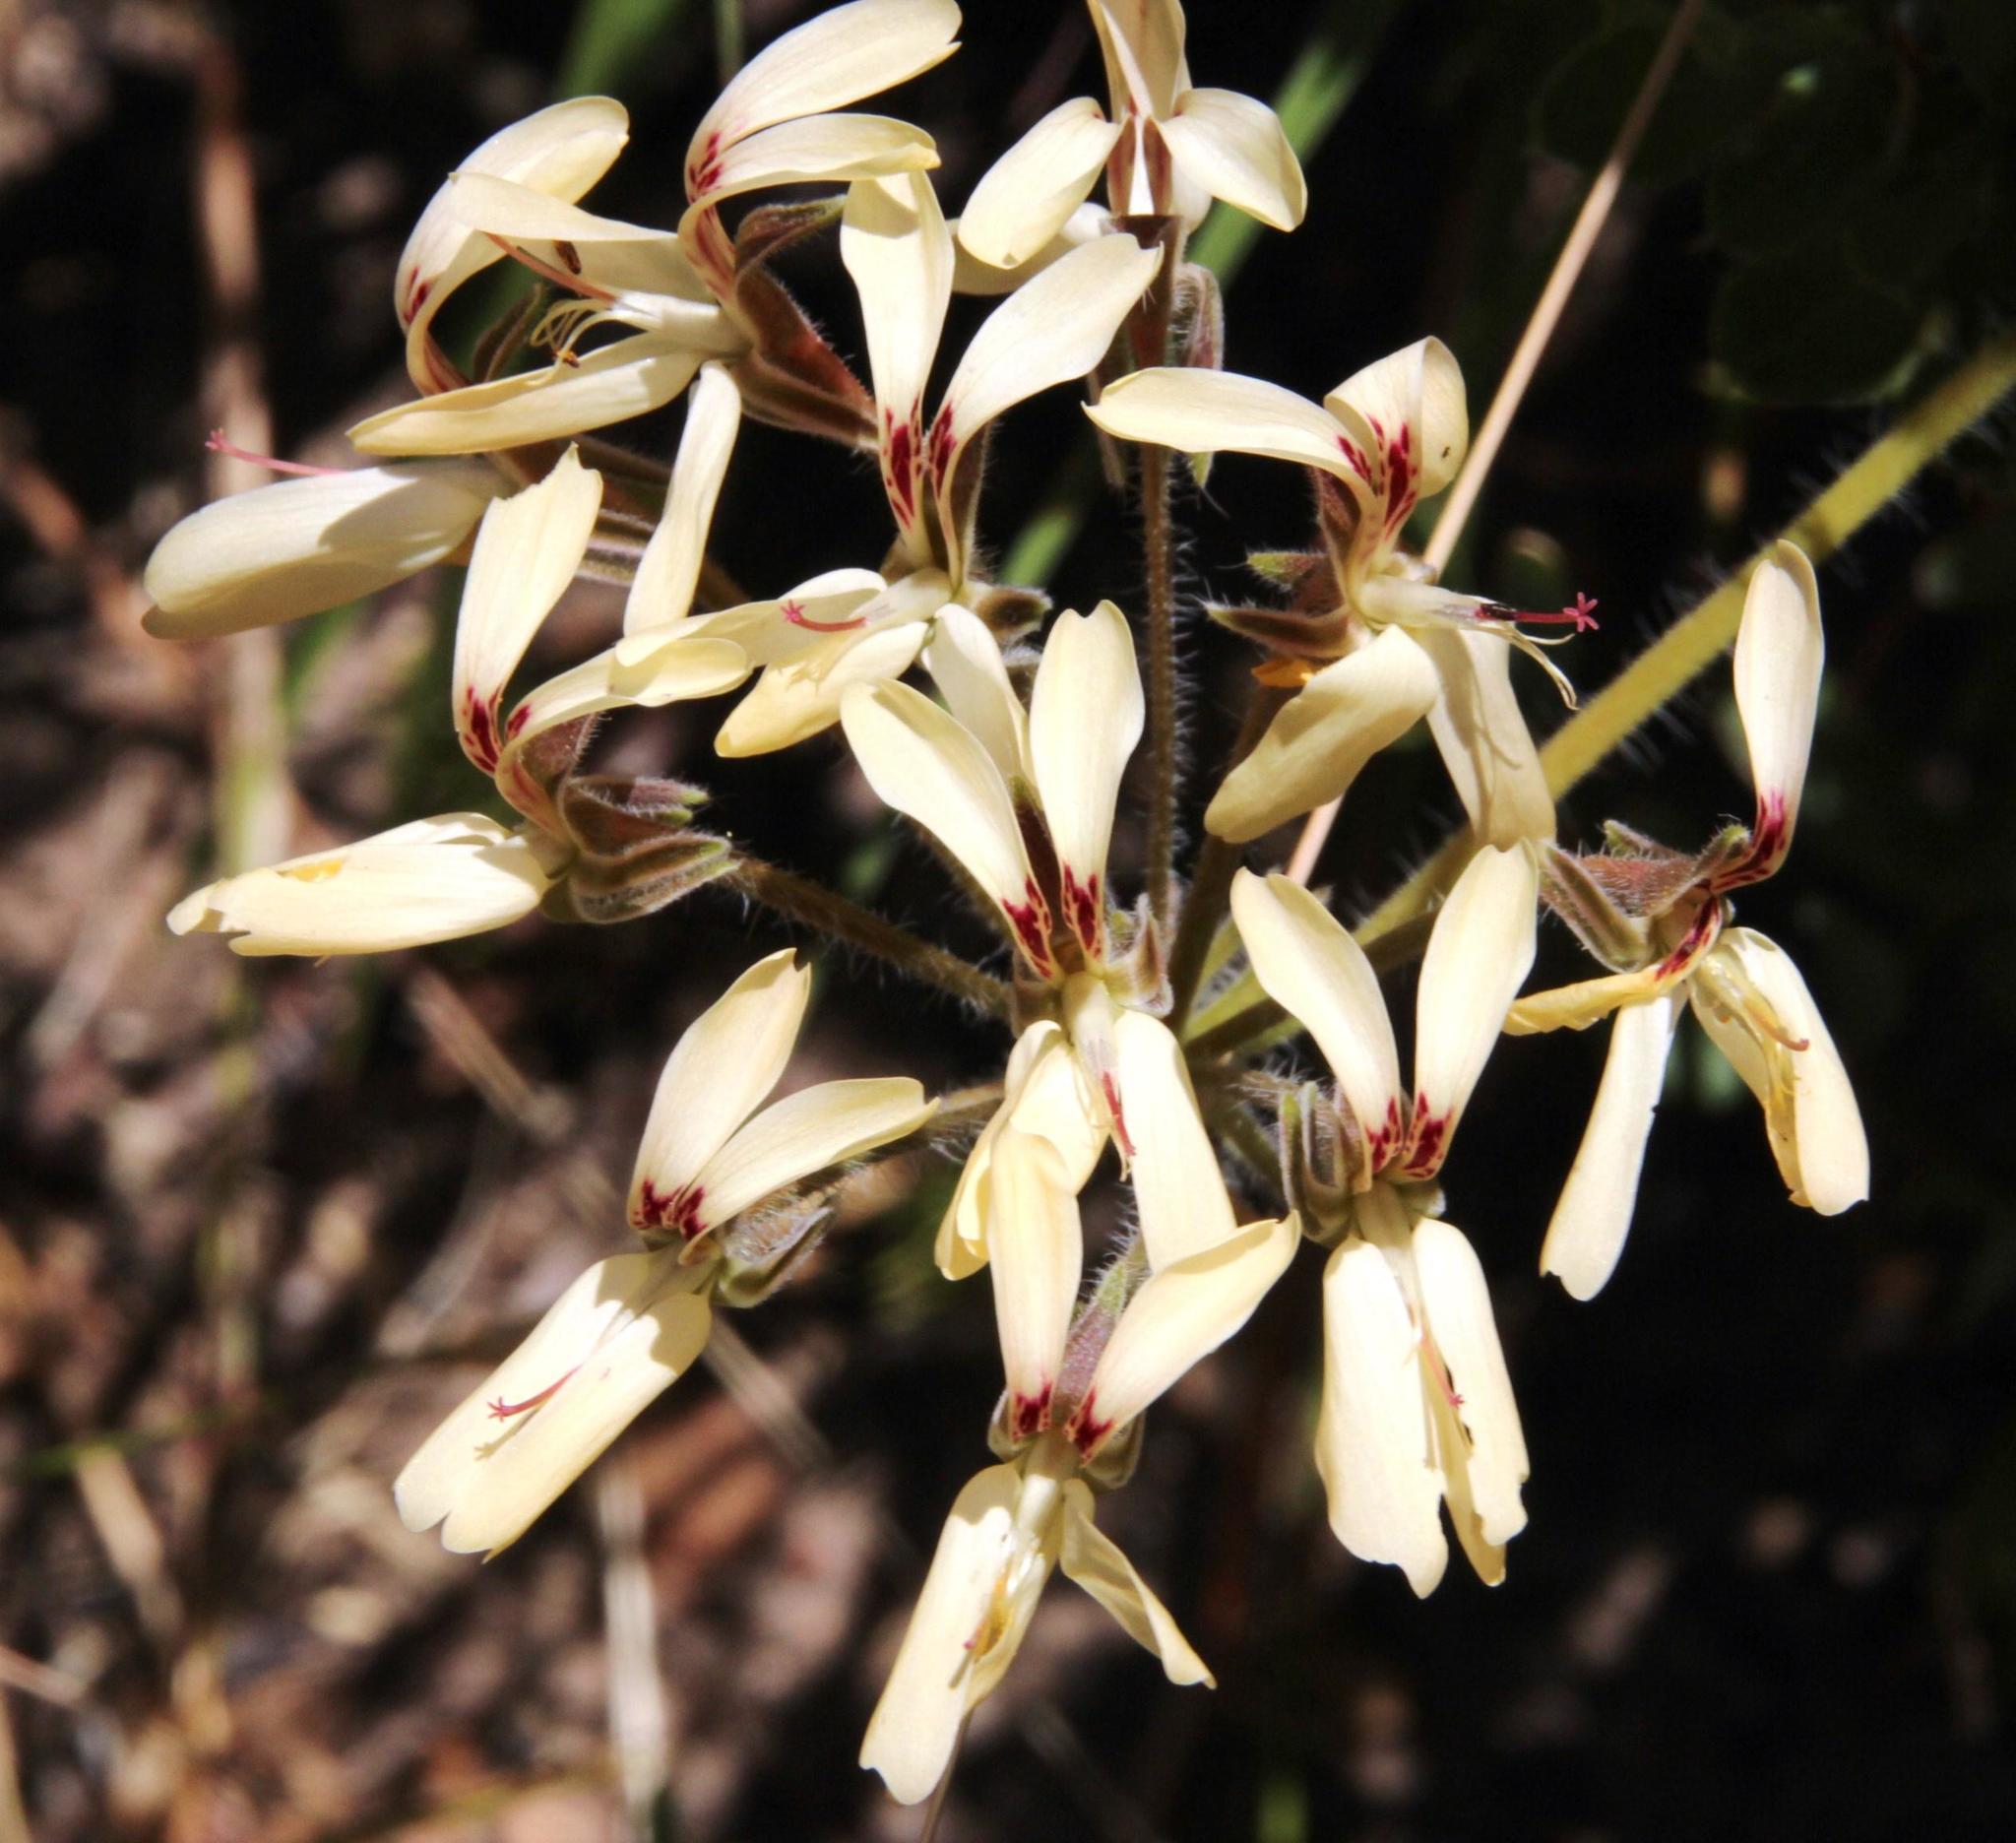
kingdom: Plantae
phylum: Tracheophyta
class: Magnoliopsida
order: Geraniales
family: Geraniaceae
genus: Pelargonium
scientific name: Pelargonium rapaceum
